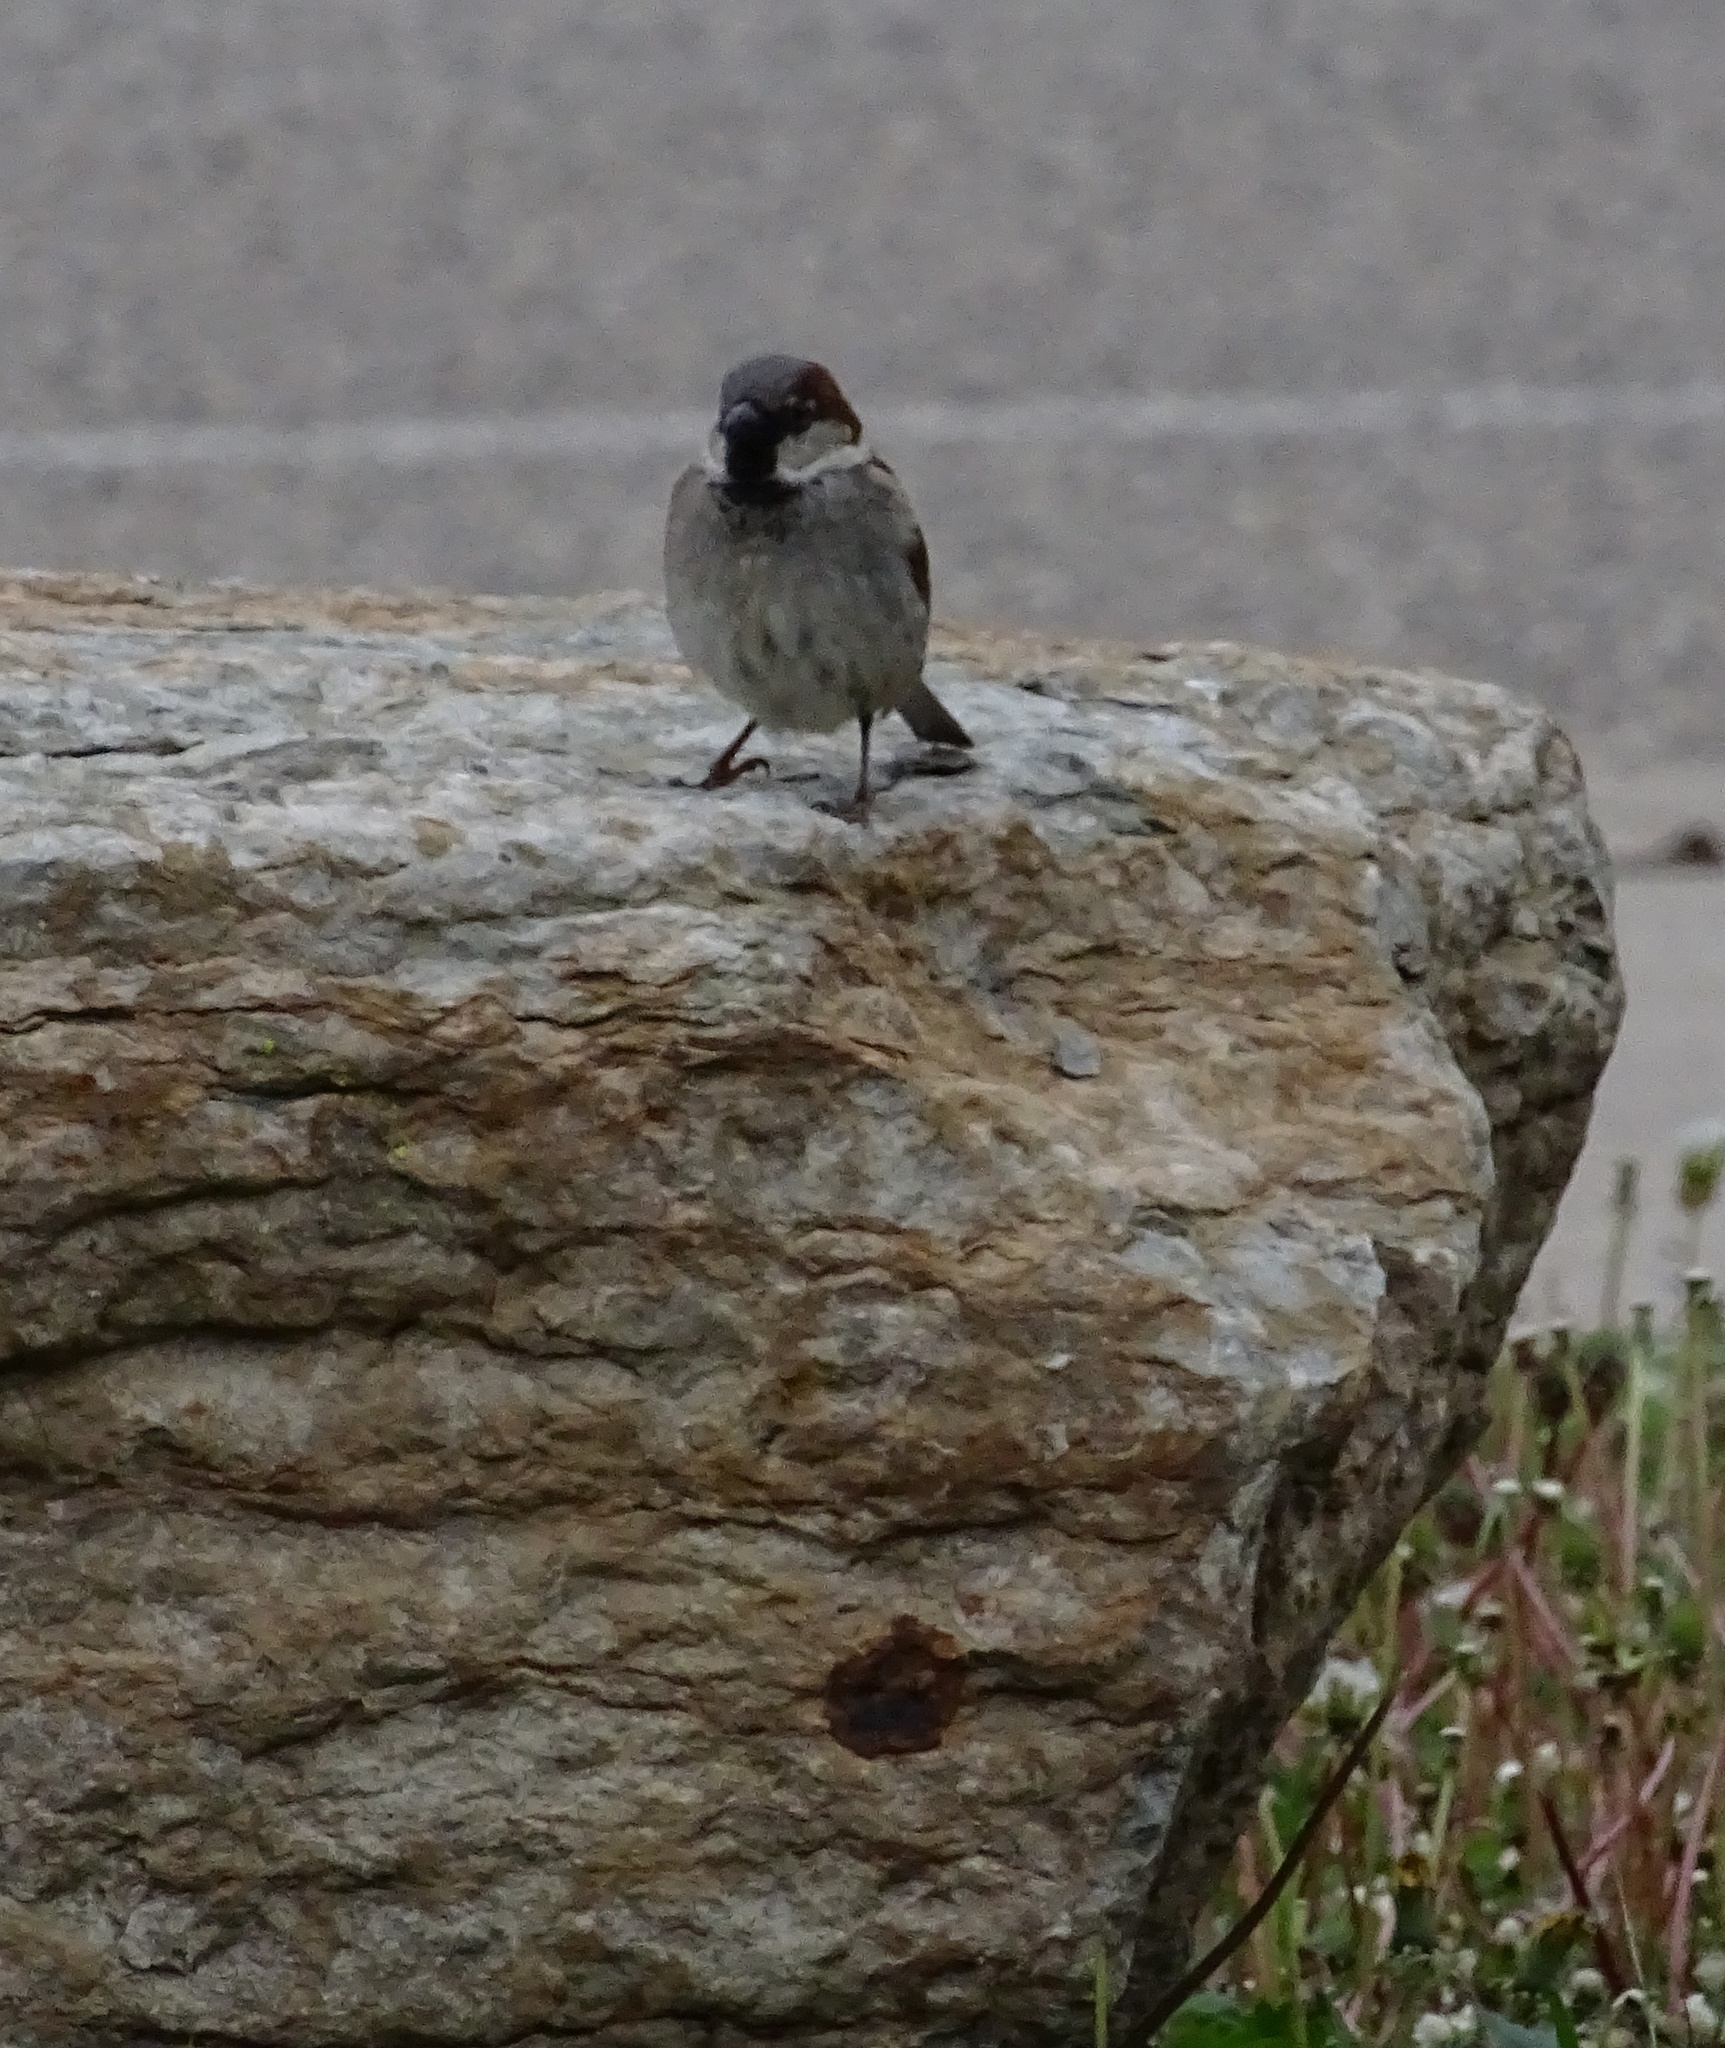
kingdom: Animalia
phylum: Chordata
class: Aves
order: Passeriformes
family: Passeridae
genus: Passer
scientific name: Passer domesticus
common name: House sparrow
